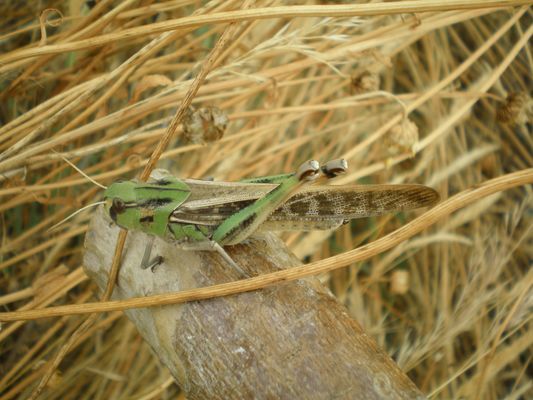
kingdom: Animalia
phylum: Arthropoda
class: Insecta
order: Orthoptera
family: Acrididae
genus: Locusta
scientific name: Locusta migratoria
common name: Migratory locust
